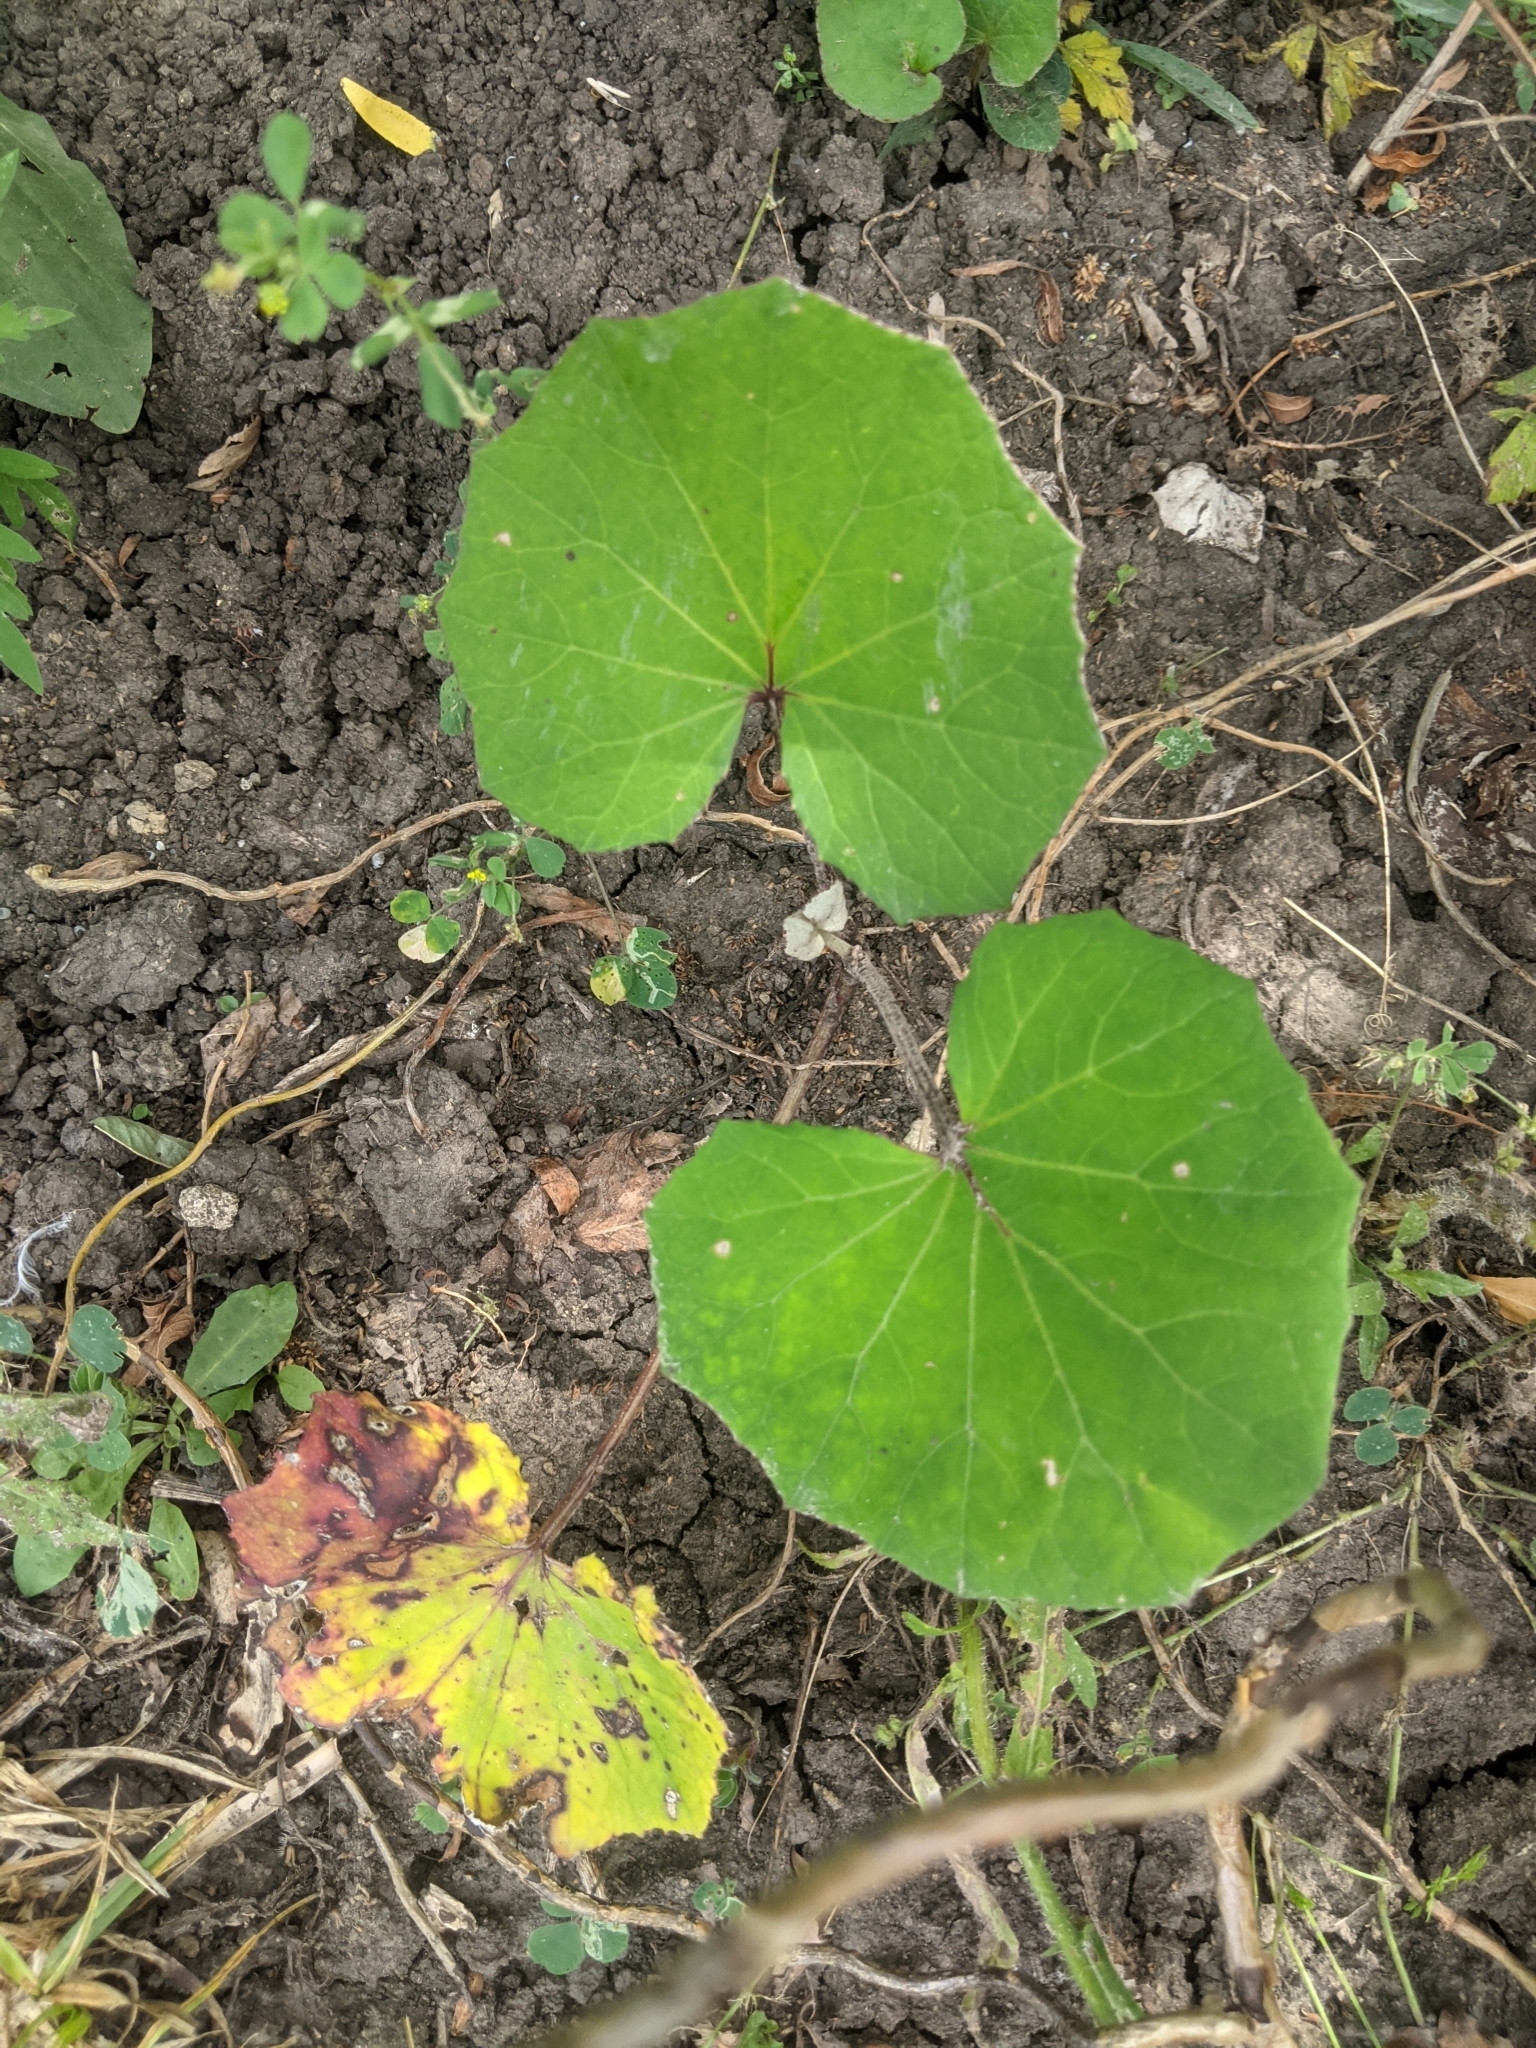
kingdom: Plantae
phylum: Tracheophyta
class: Magnoliopsida
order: Asterales
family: Asteraceae
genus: Tussilago
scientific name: Tussilago farfara
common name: Coltsfoot
